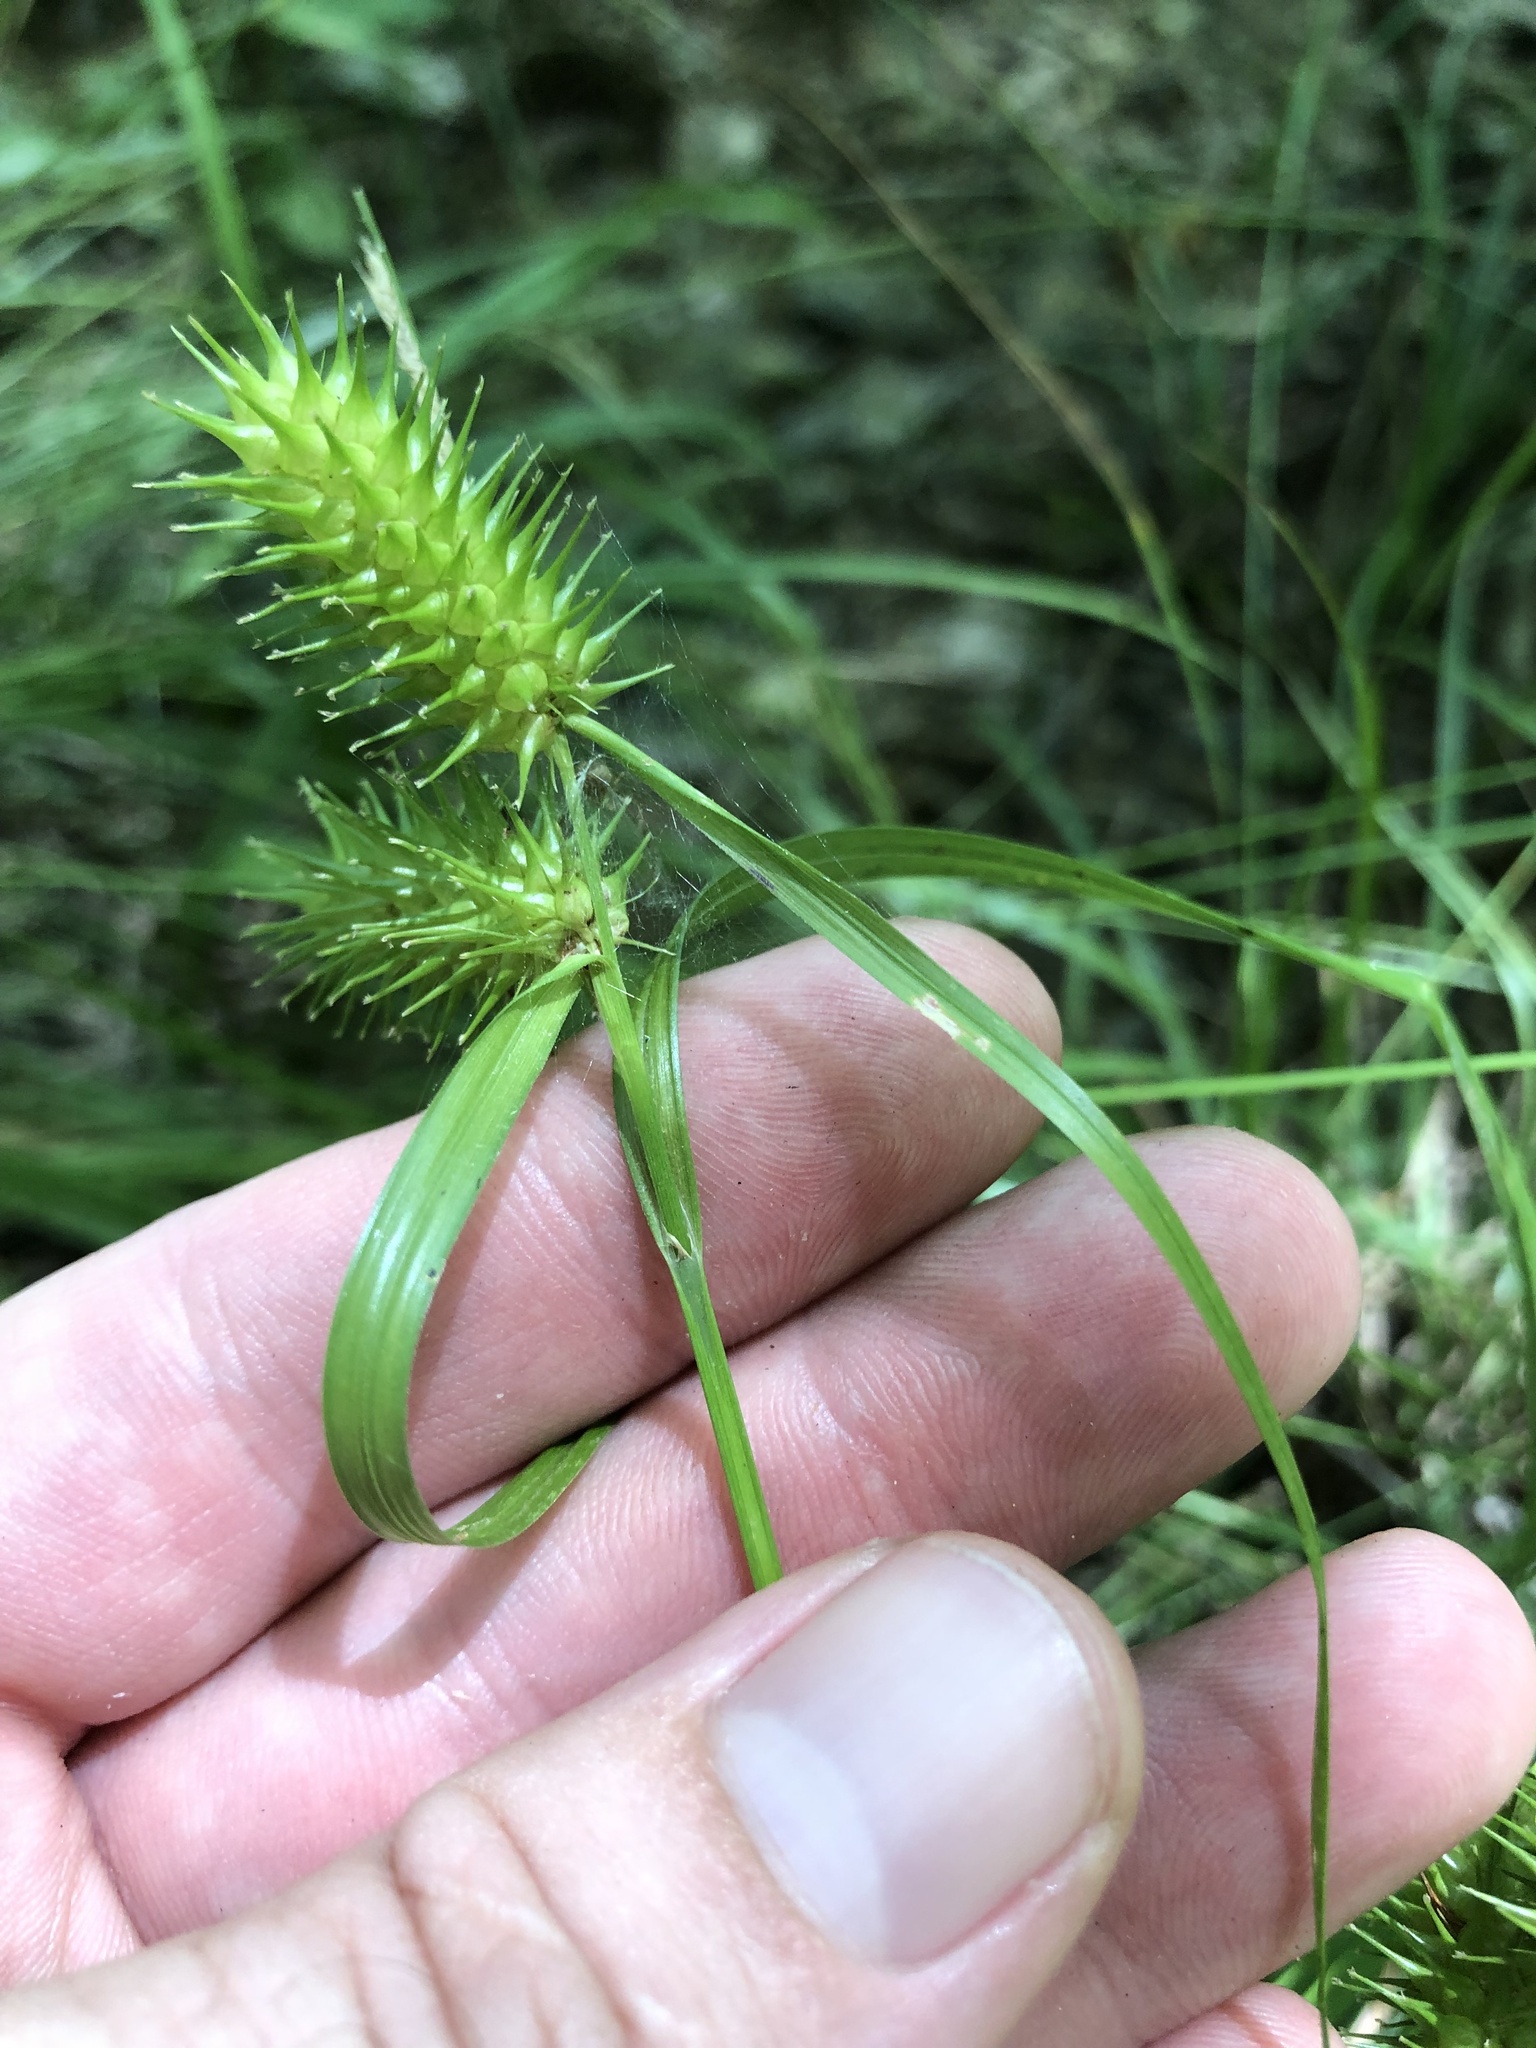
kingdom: Plantae
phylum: Tracheophyta
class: Liliopsida
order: Poales
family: Cyperaceae
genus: Carex
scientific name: Carex lurida
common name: Sallow sedge
